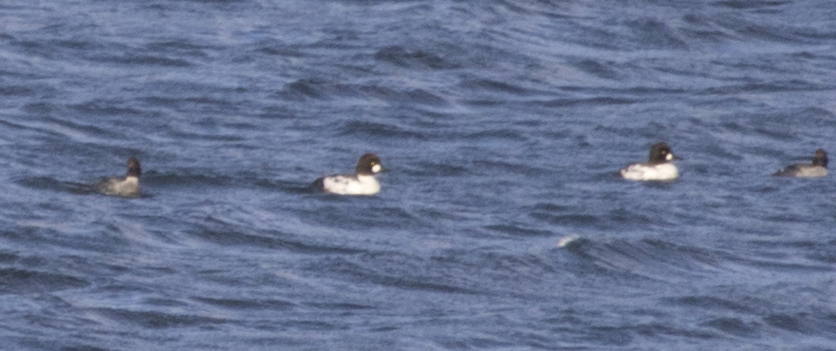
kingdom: Animalia
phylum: Chordata
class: Aves
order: Anseriformes
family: Anatidae
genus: Bucephala
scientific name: Bucephala clangula
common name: Common goldeneye
